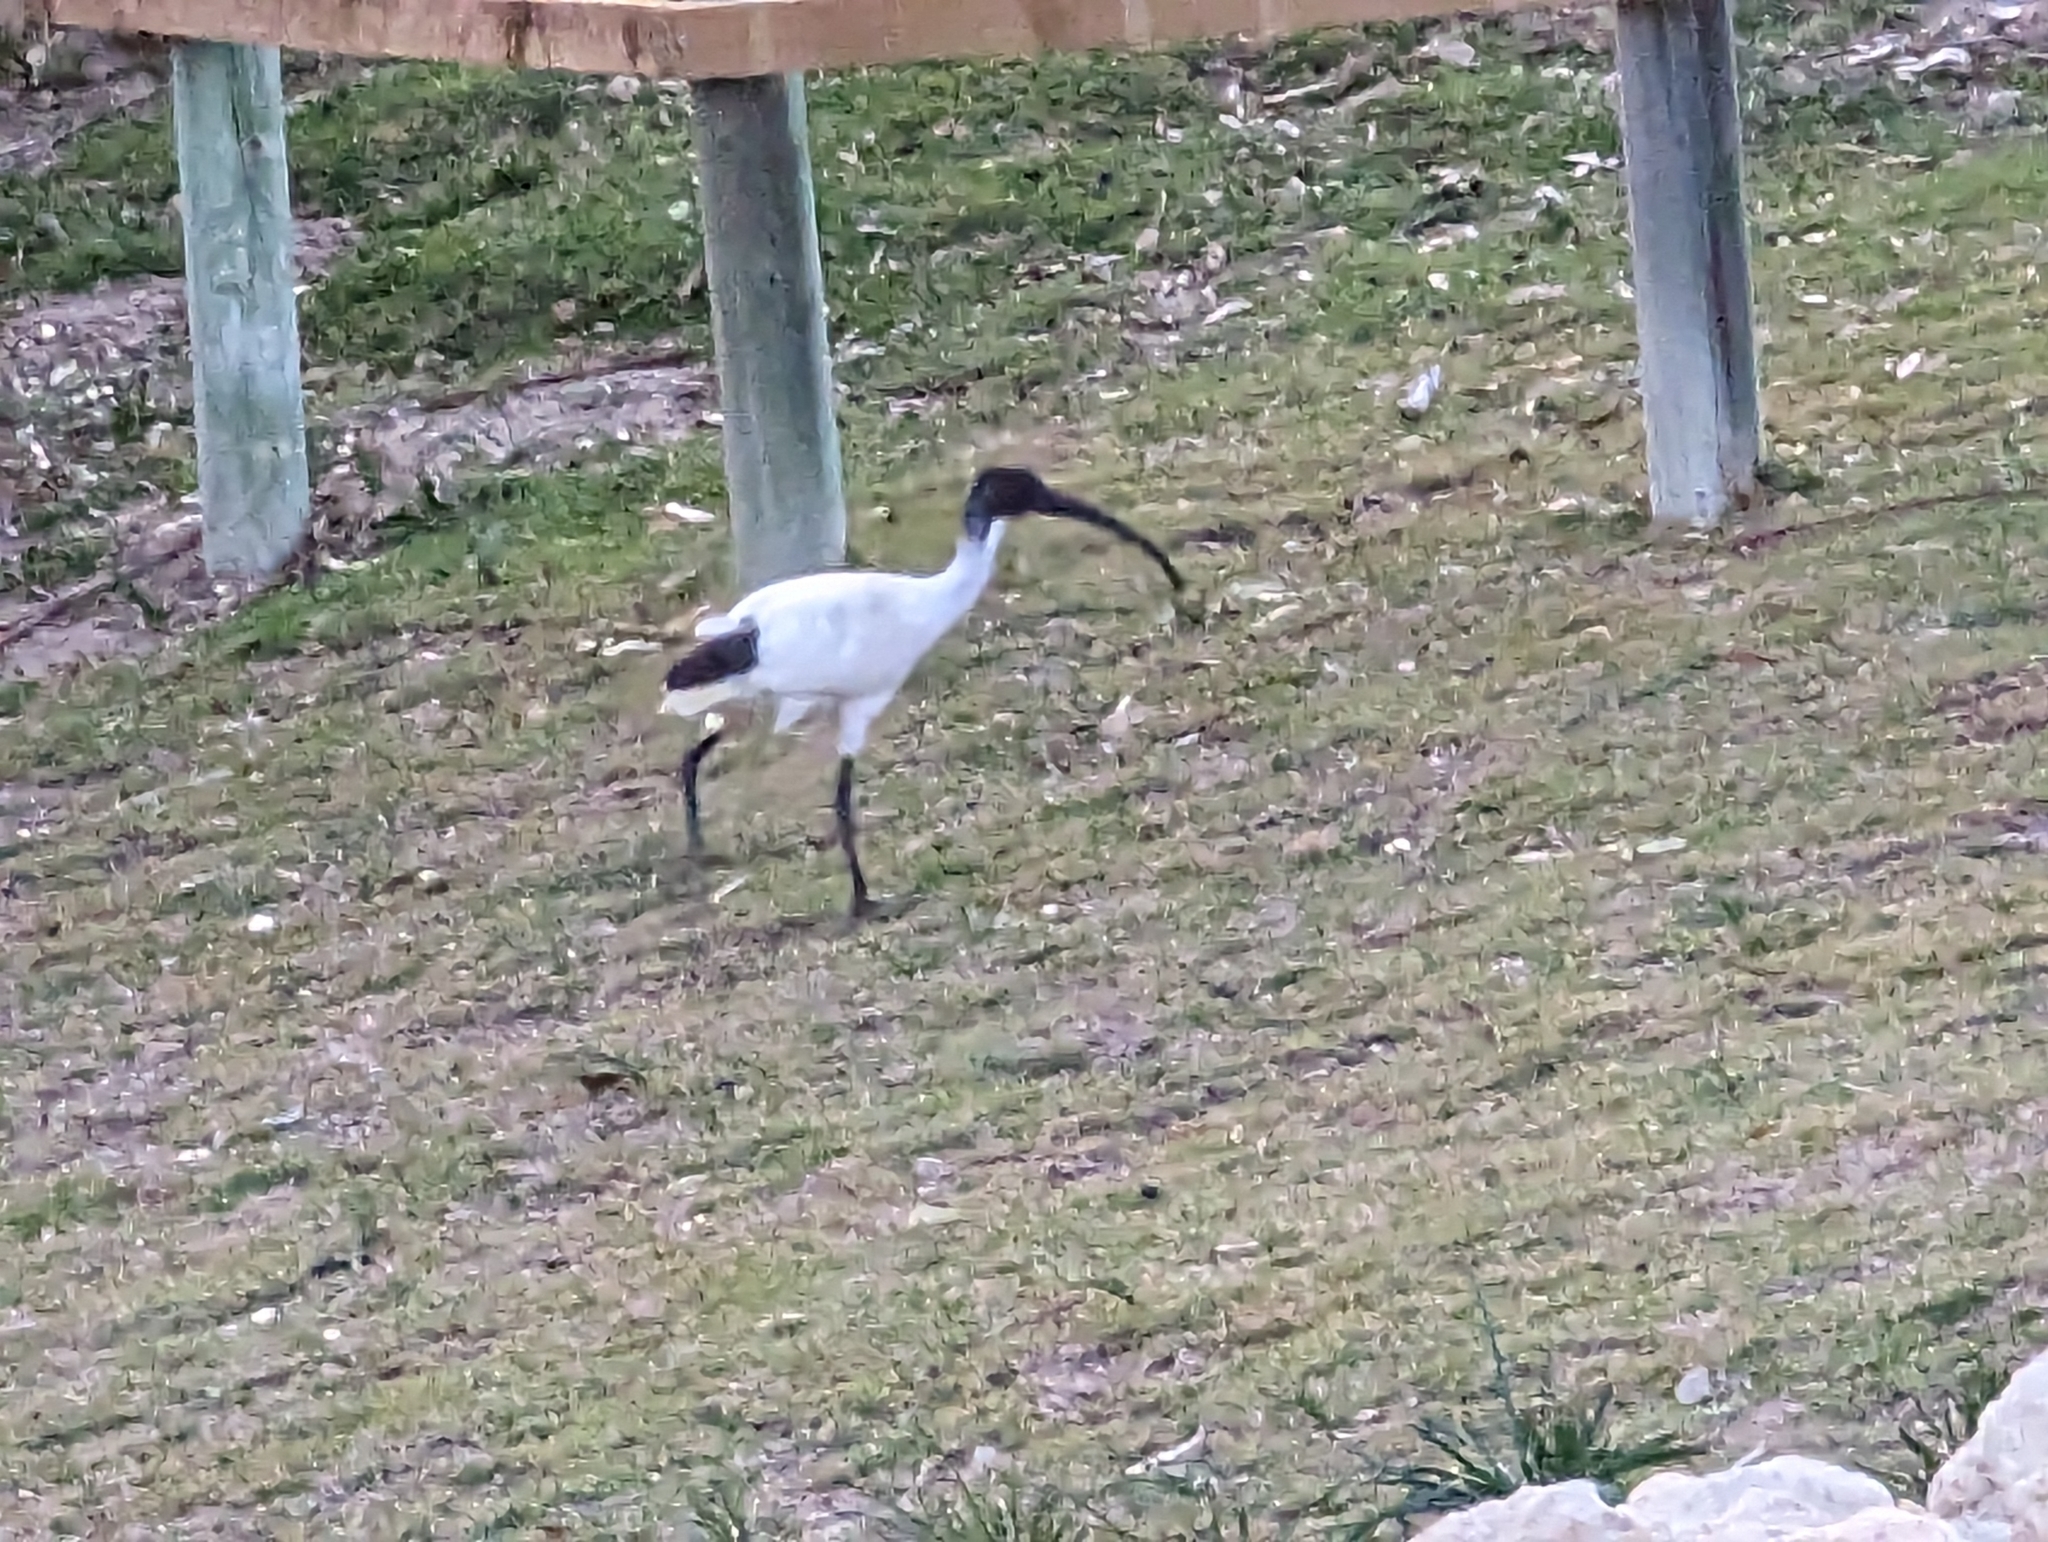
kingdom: Animalia
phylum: Chordata
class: Aves
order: Pelecaniformes
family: Threskiornithidae
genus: Threskiornis
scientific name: Threskiornis molucca
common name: Australian white ibis
